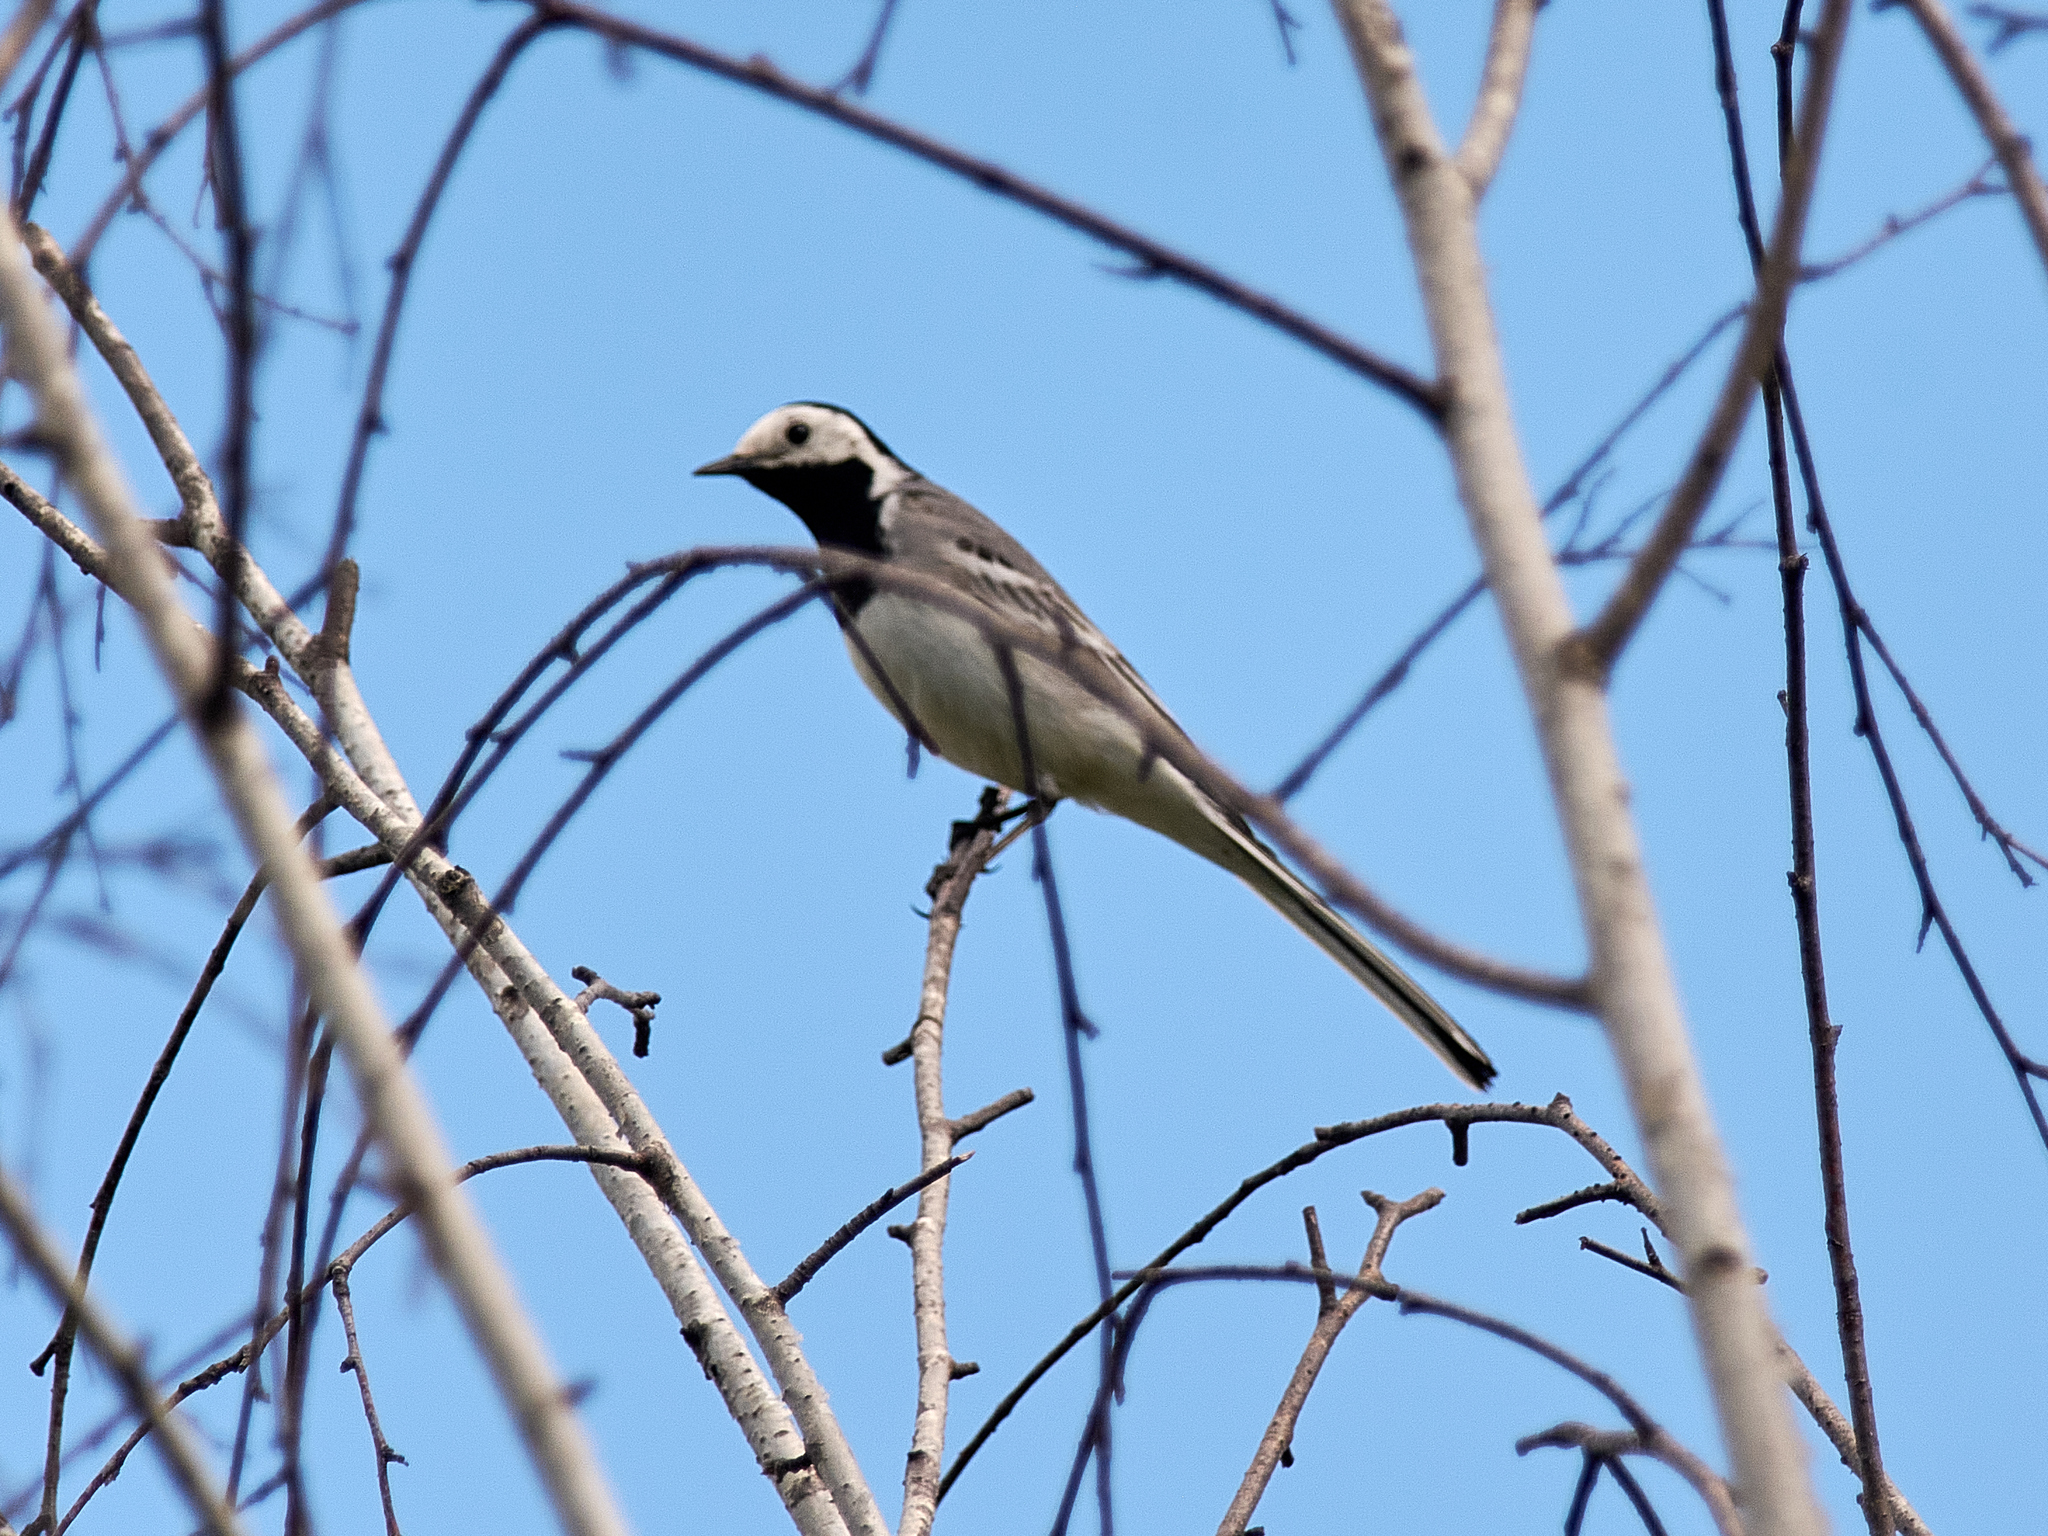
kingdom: Animalia
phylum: Chordata
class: Aves
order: Passeriformes
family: Motacillidae
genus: Motacilla
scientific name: Motacilla alba
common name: White wagtail
